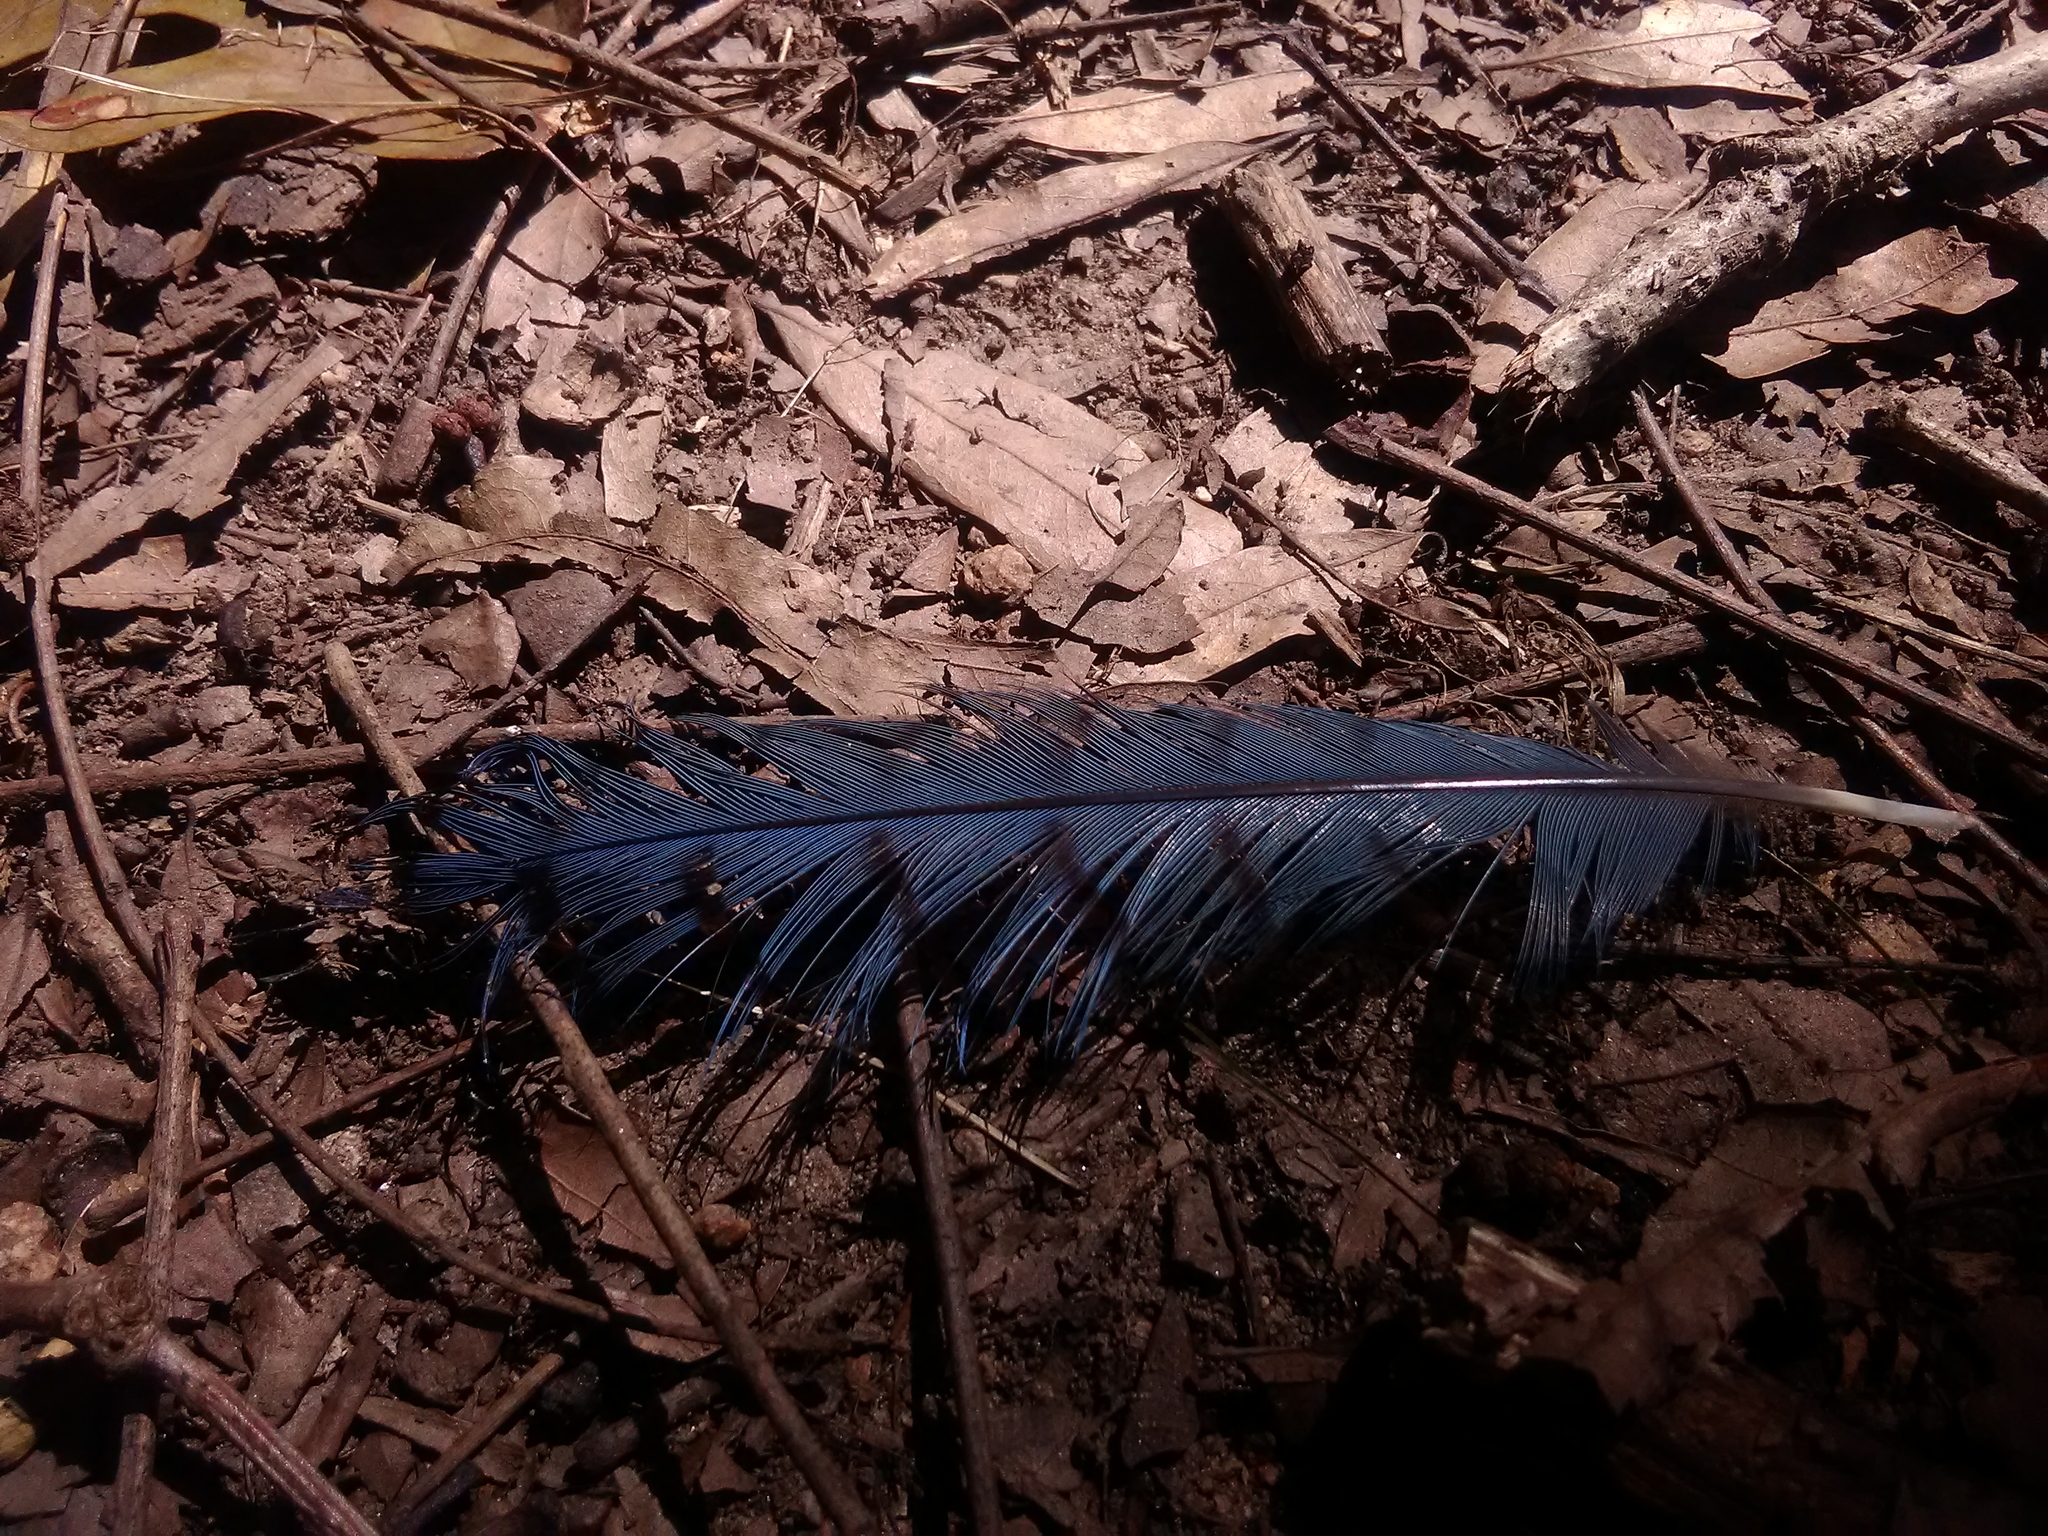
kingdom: Animalia
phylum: Chordata
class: Aves
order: Passeriformes
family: Corvidae
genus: Cyanocitta
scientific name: Cyanocitta cristata
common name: Blue jay
